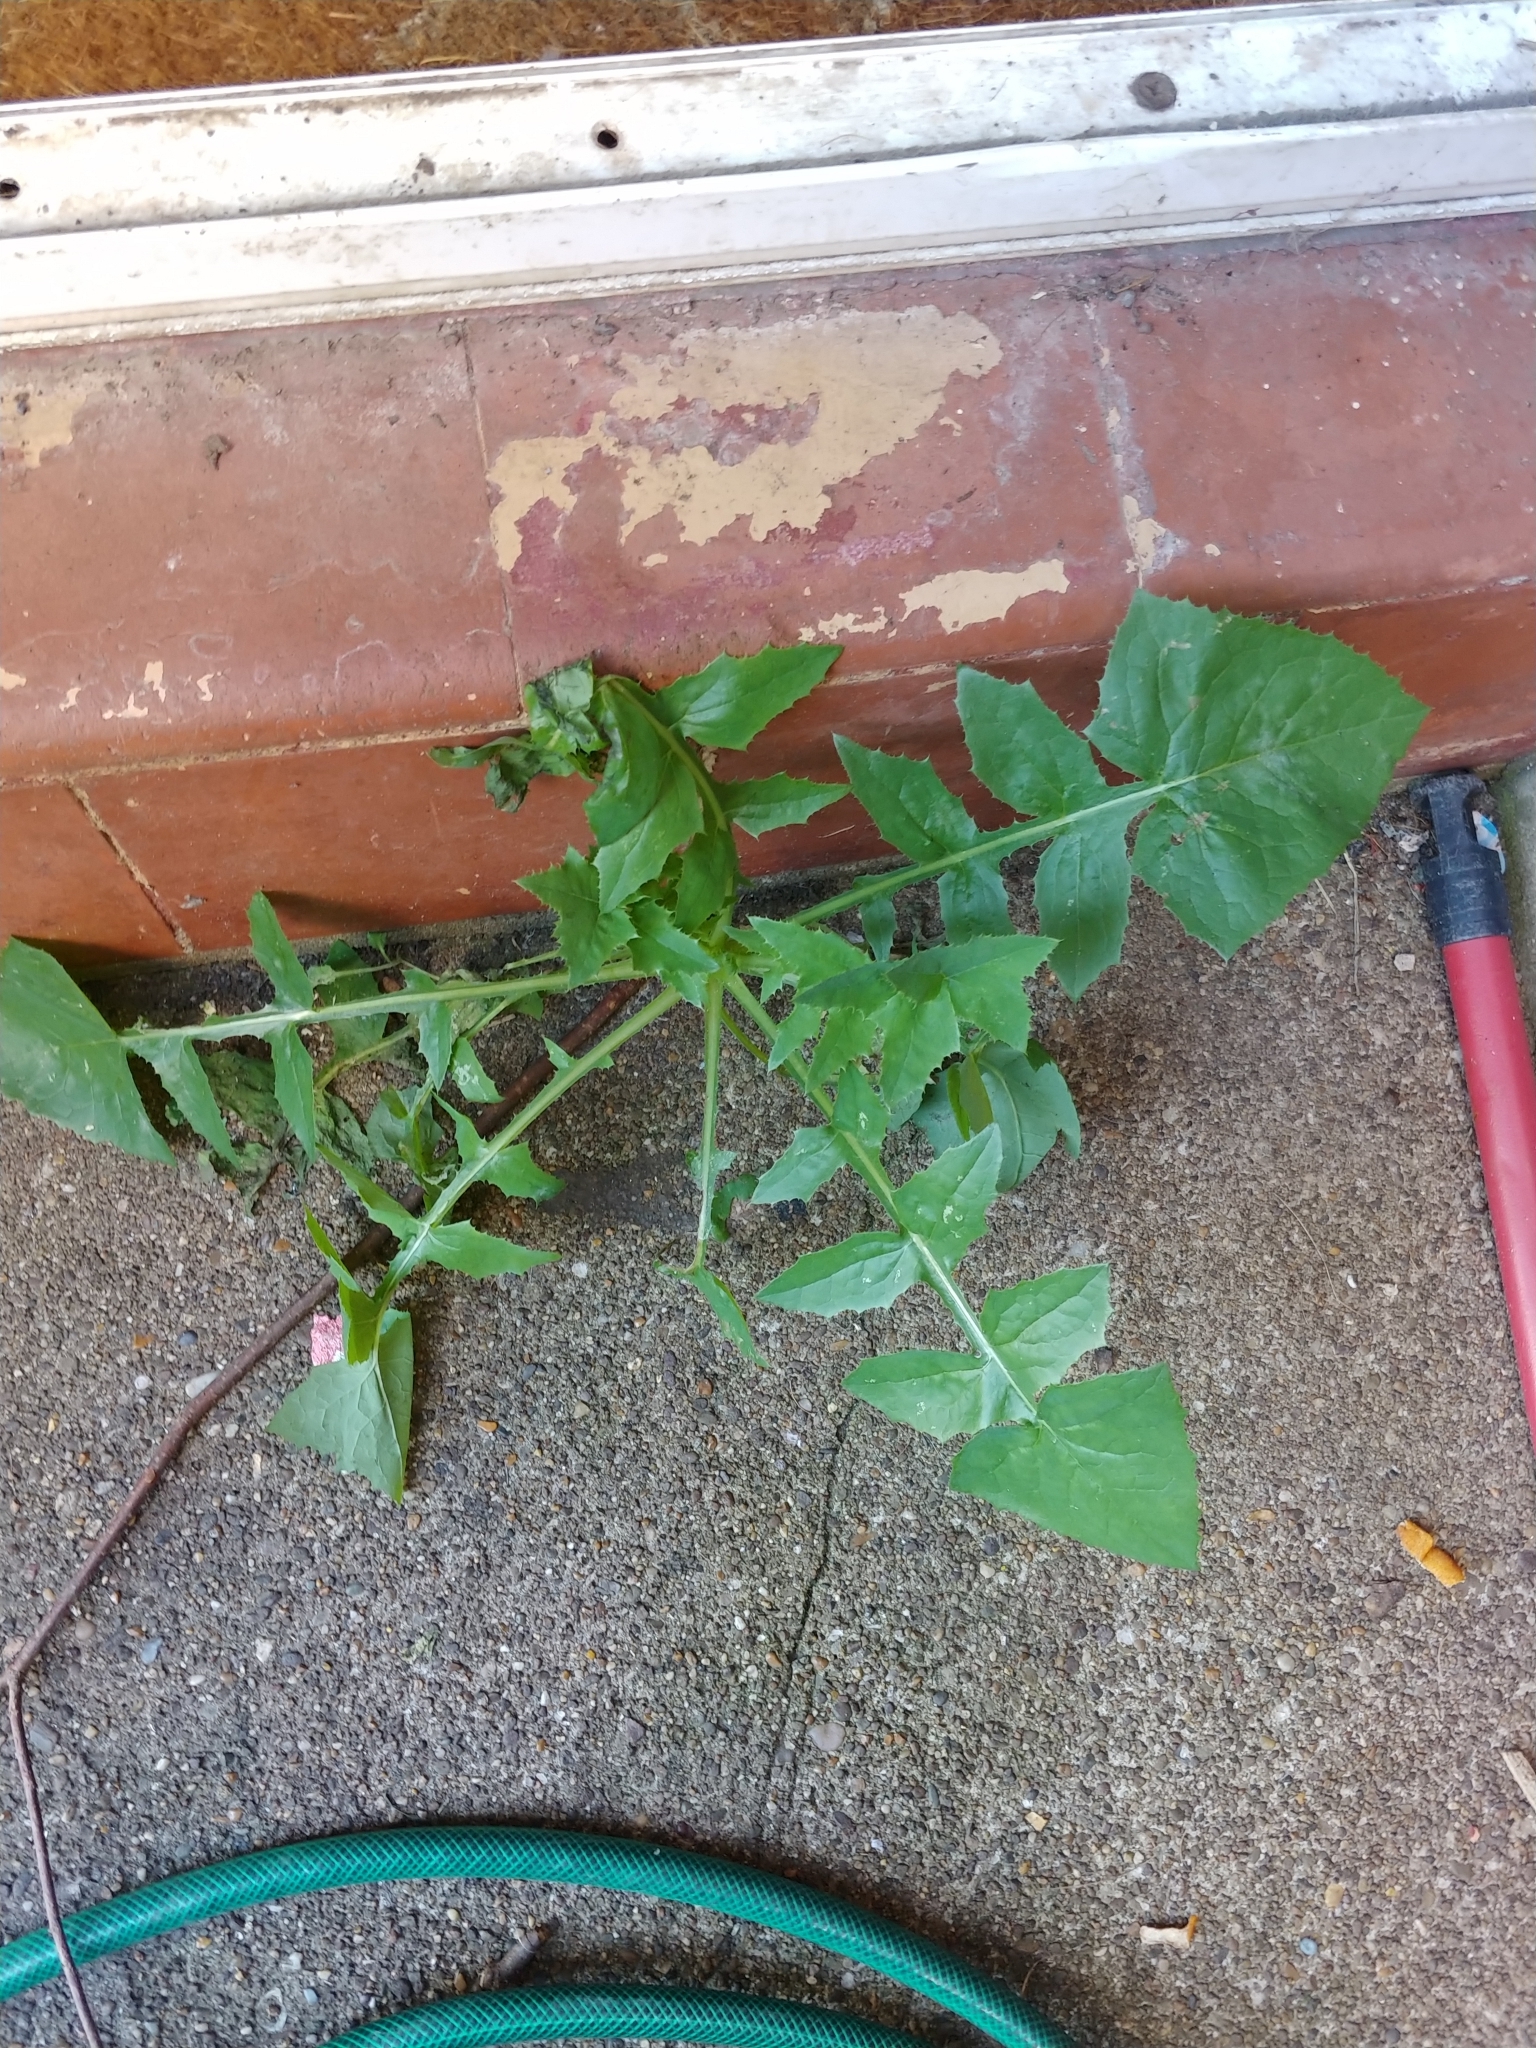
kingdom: Plantae
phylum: Tracheophyta
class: Magnoliopsida
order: Asterales
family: Asteraceae
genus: Sonchus
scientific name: Sonchus oleraceus
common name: Common sowthistle
